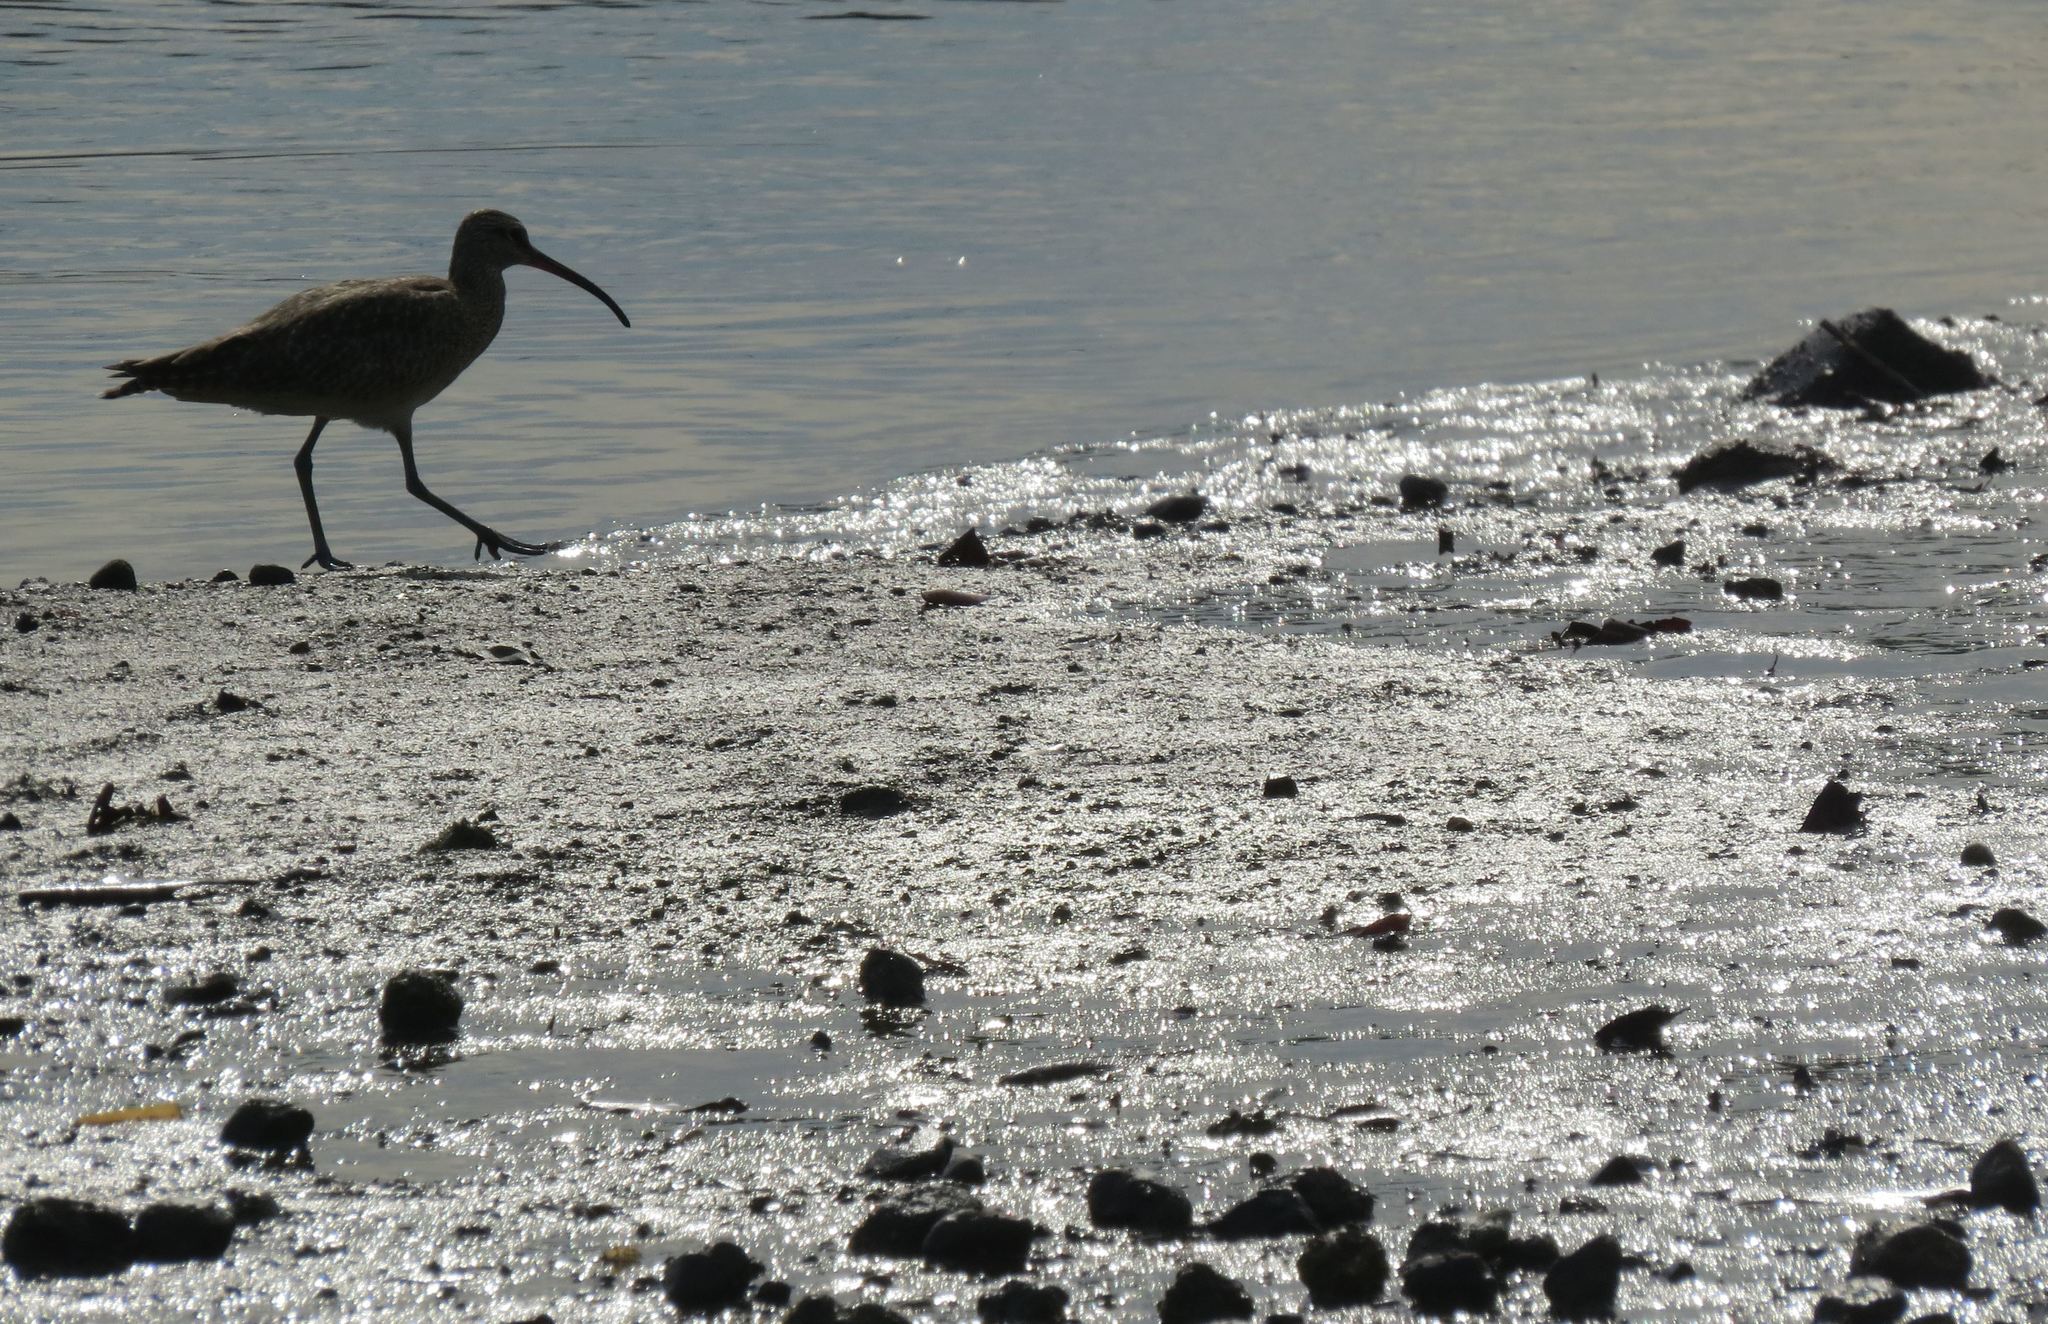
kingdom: Animalia
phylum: Chordata
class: Aves
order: Charadriiformes
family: Scolopacidae
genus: Numenius
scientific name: Numenius phaeopus
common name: Whimbrel
